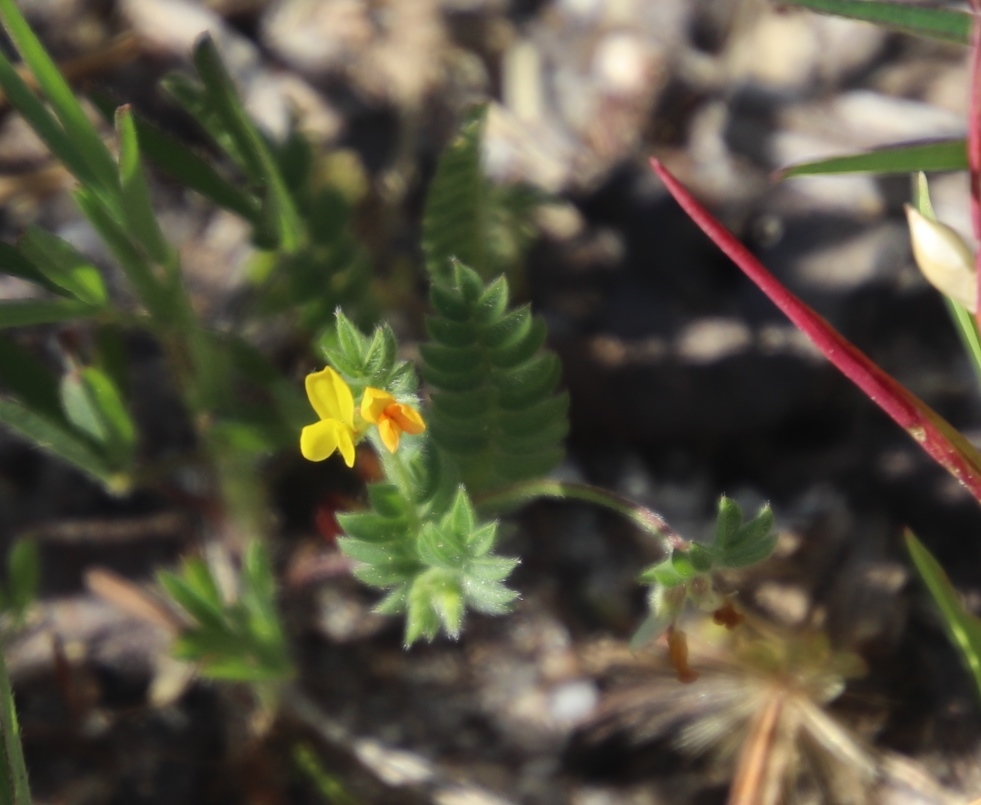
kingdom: Plantae
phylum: Tracheophyta
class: Magnoliopsida
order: Fabales
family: Fabaceae
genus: Ornithopus
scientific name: Ornithopus compressus
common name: Yellow serradella
